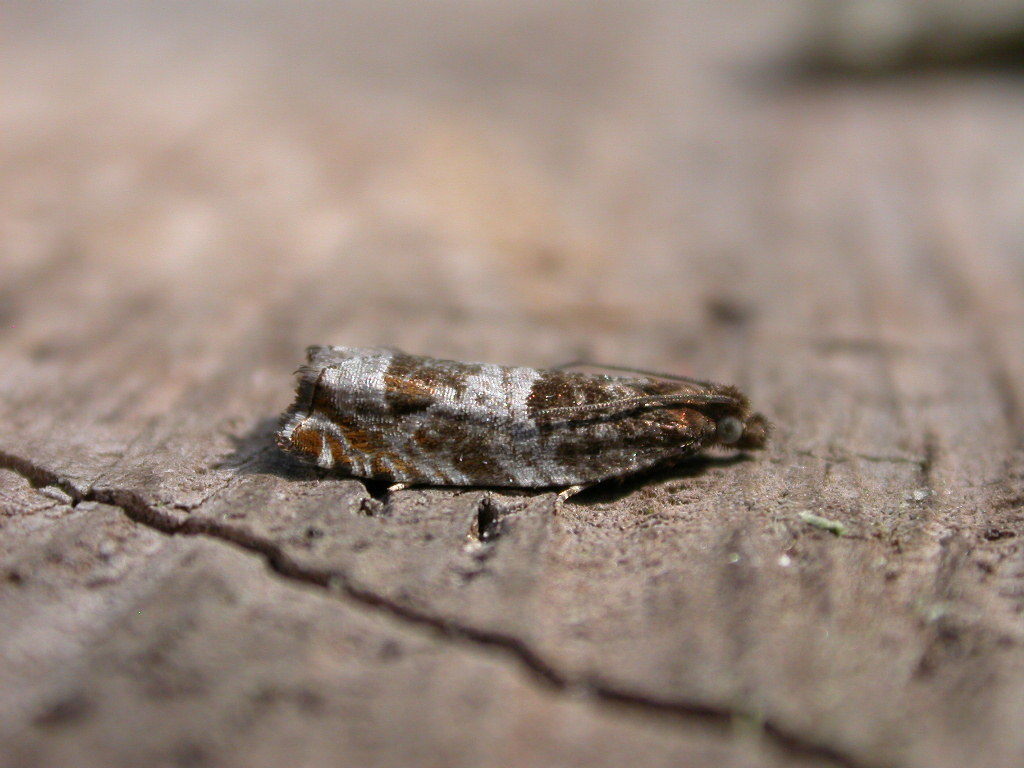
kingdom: Animalia
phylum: Arthropoda
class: Insecta
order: Lepidoptera
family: Tortricidae
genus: Ancylis
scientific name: Ancylis achatana
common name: Triangle-marked roller
